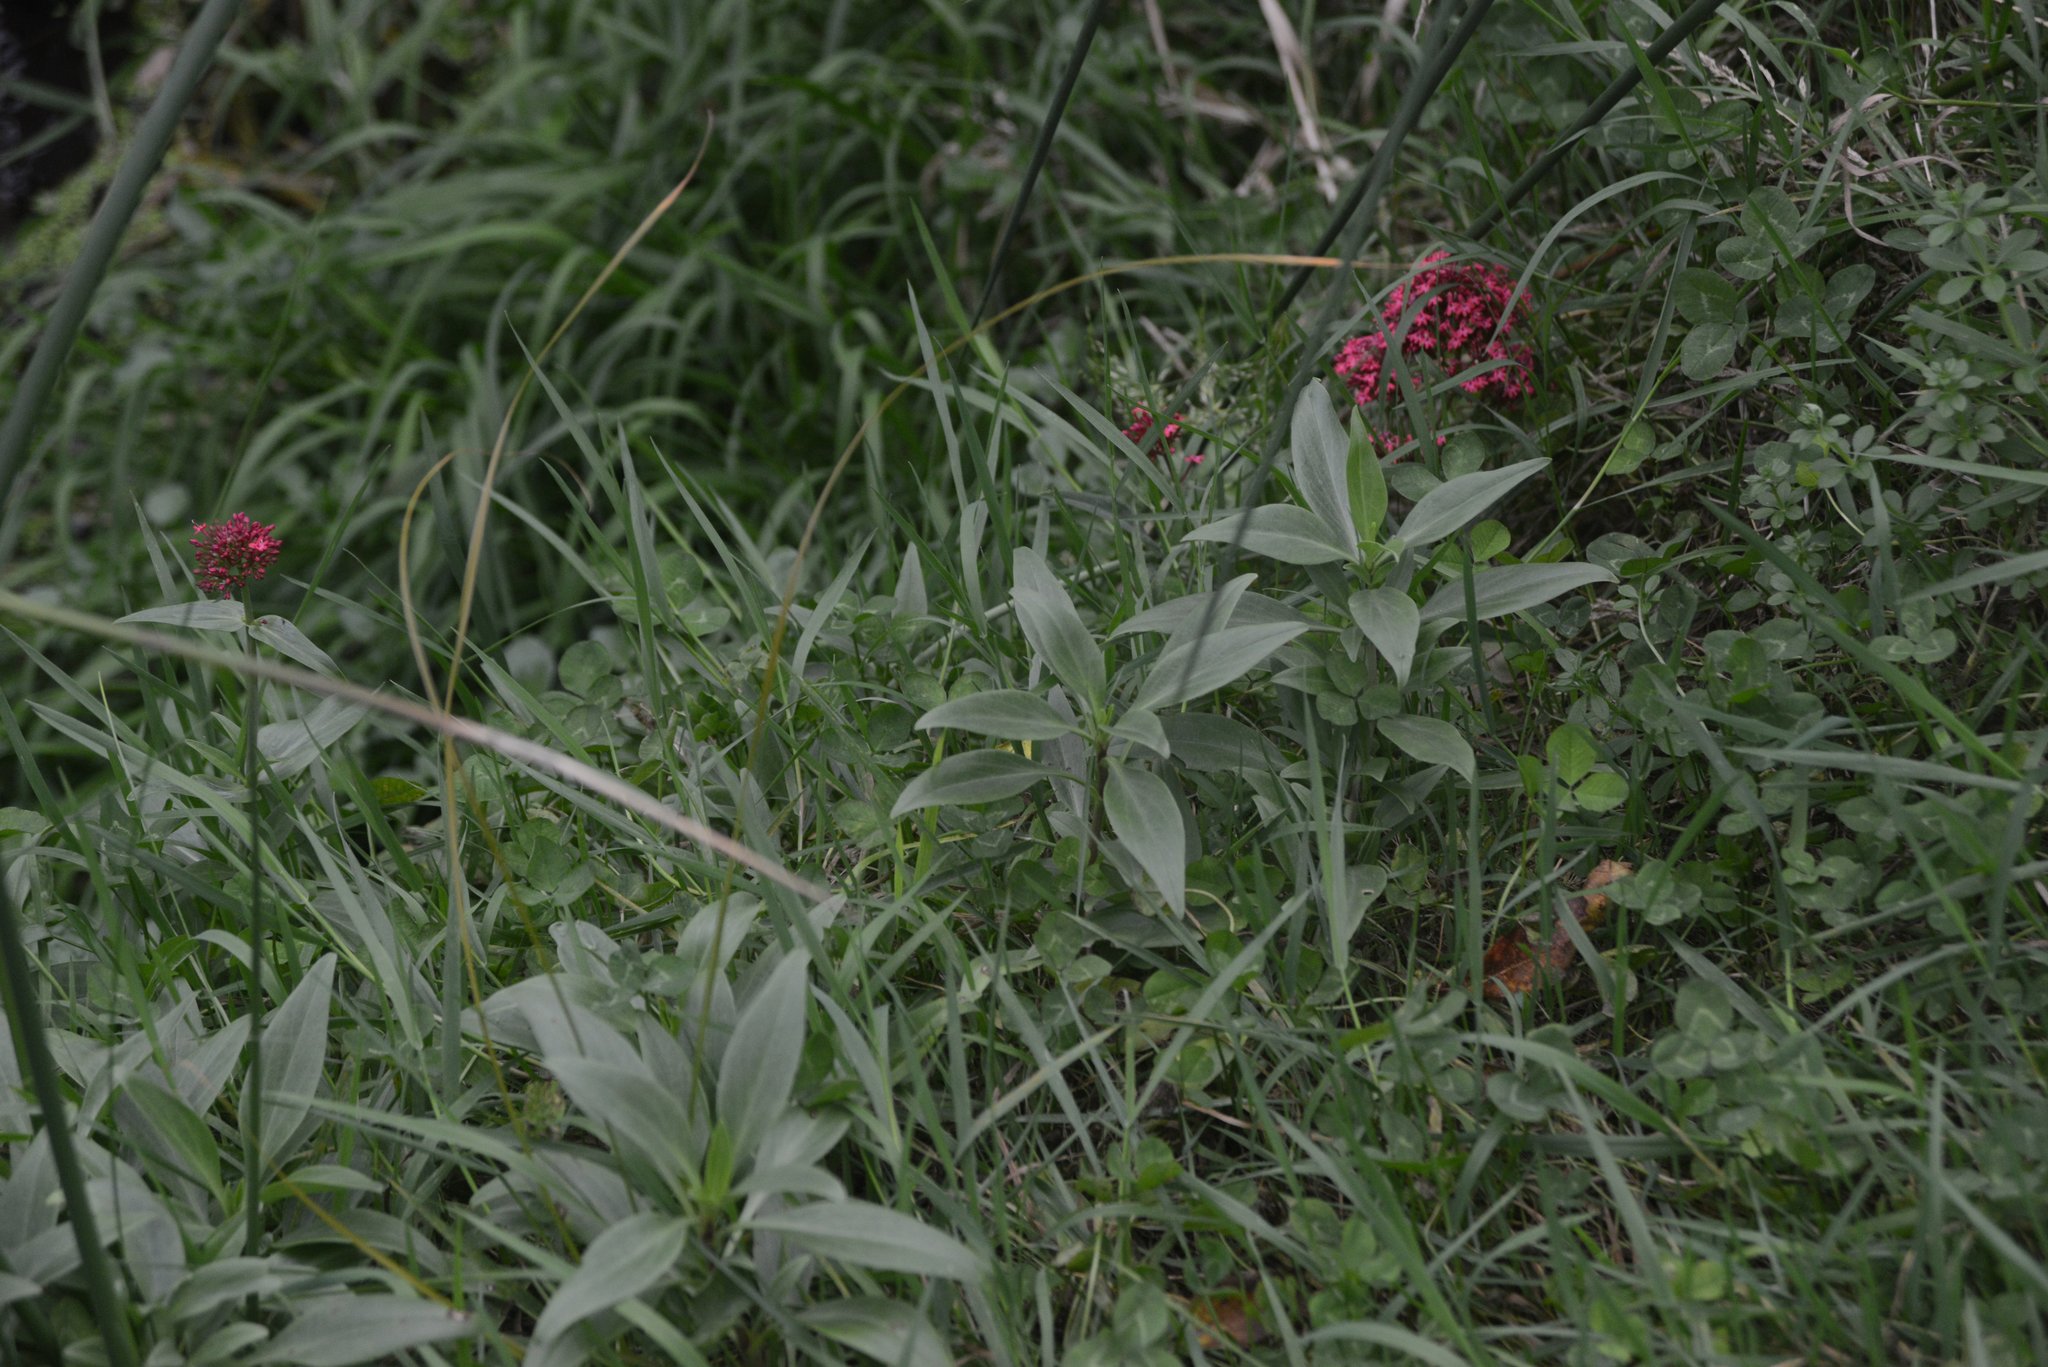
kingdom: Plantae
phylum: Tracheophyta
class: Magnoliopsida
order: Dipsacales
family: Caprifoliaceae
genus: Centranthus
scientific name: Centranthus ruber
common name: Red valerian
